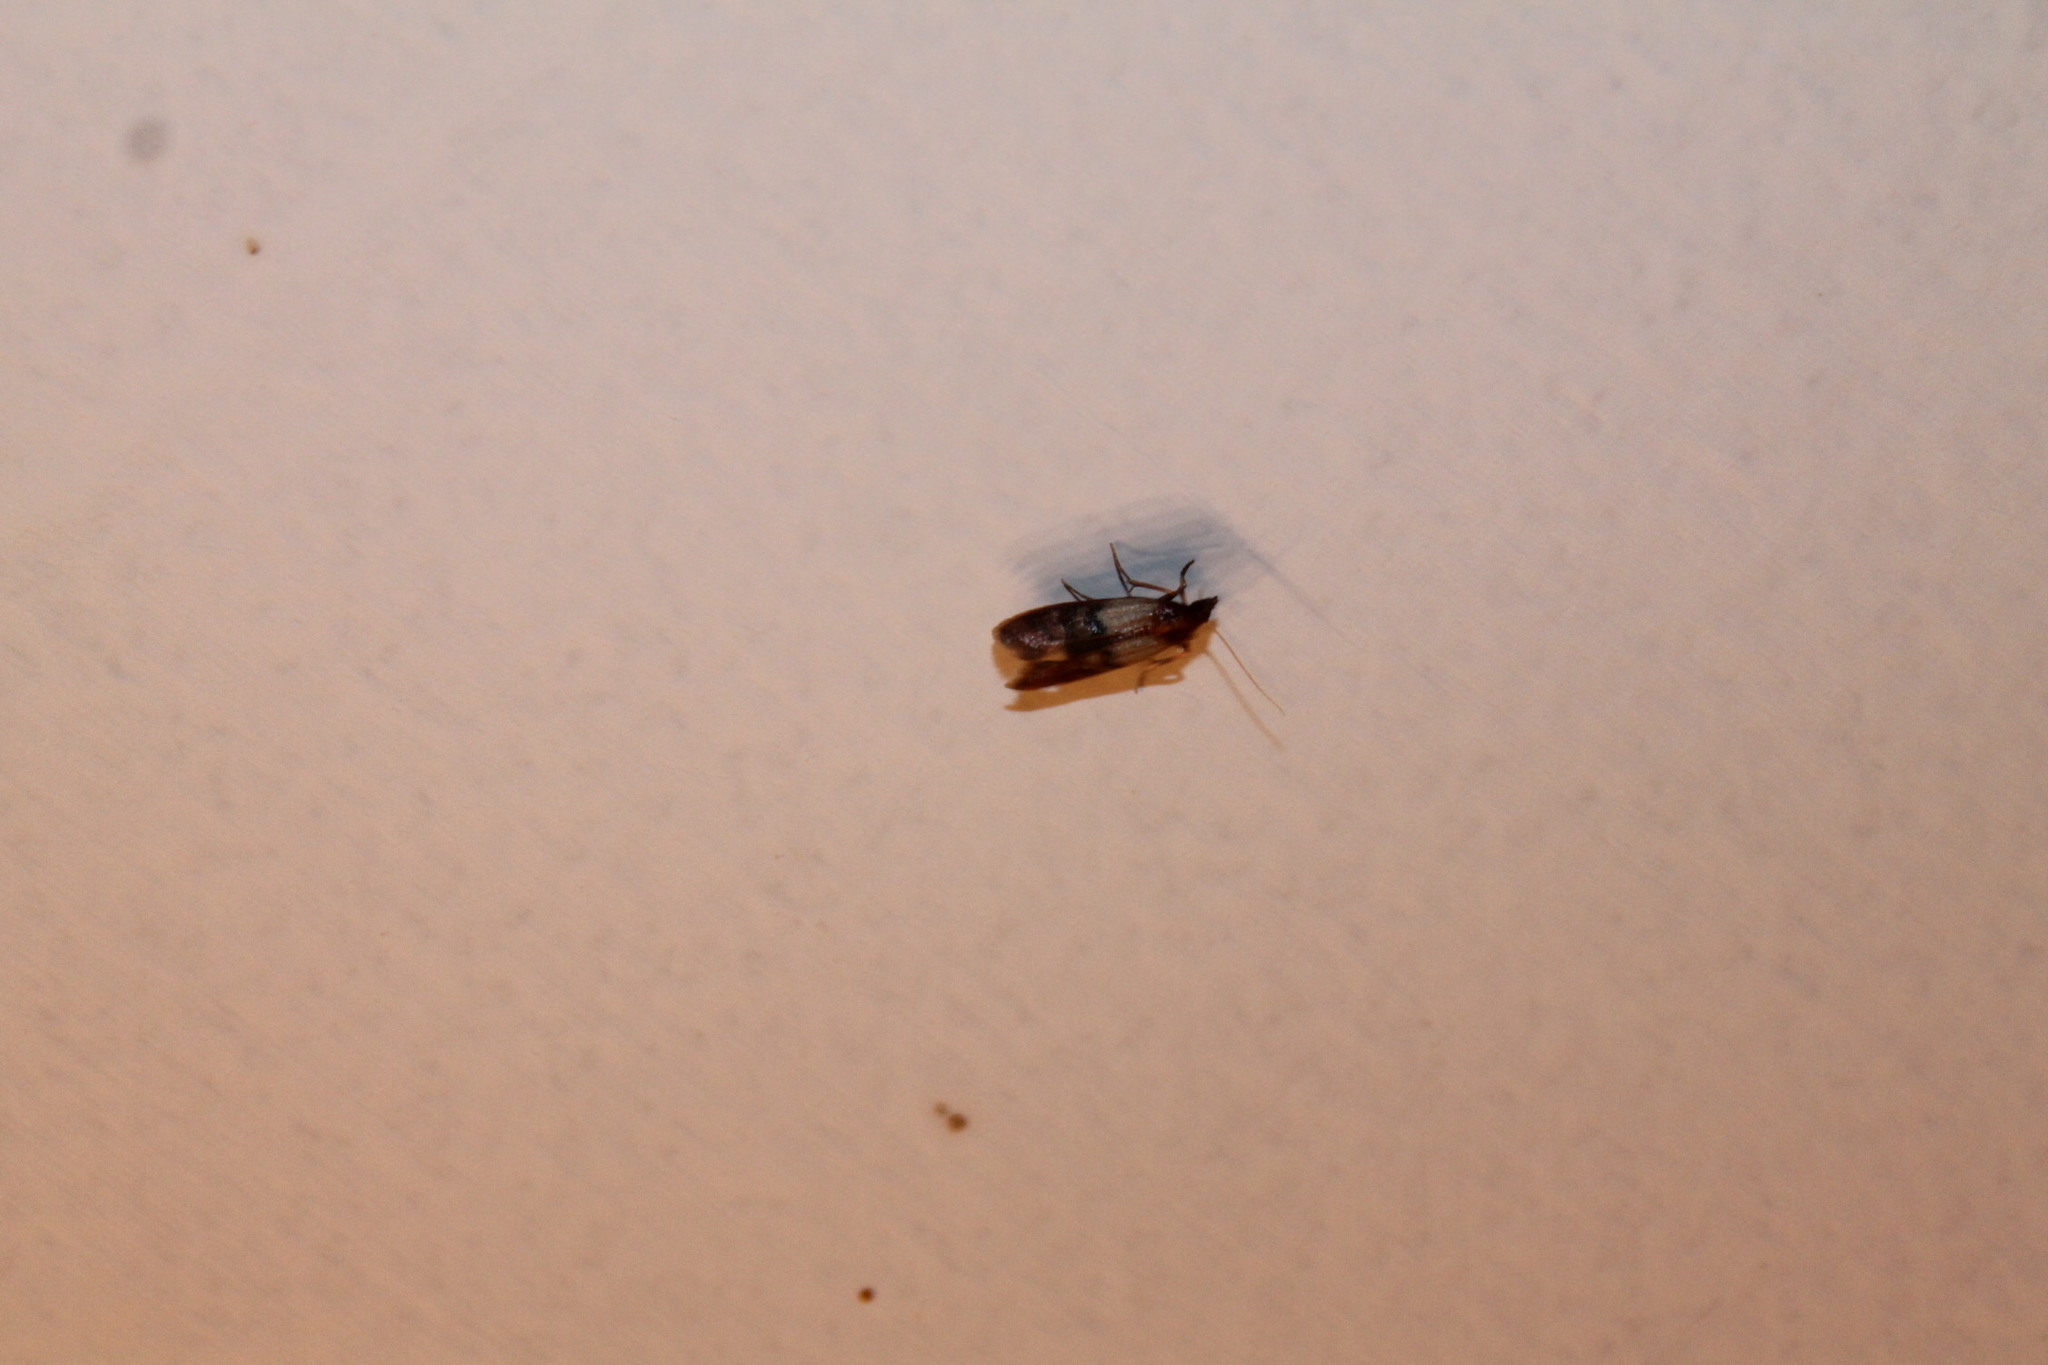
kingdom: Animalia
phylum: Arthropoda
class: Insecta
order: Lepidoptera
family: Pyralidae
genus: Plodia
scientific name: Plodia interpunctella
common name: Indian meal moth
